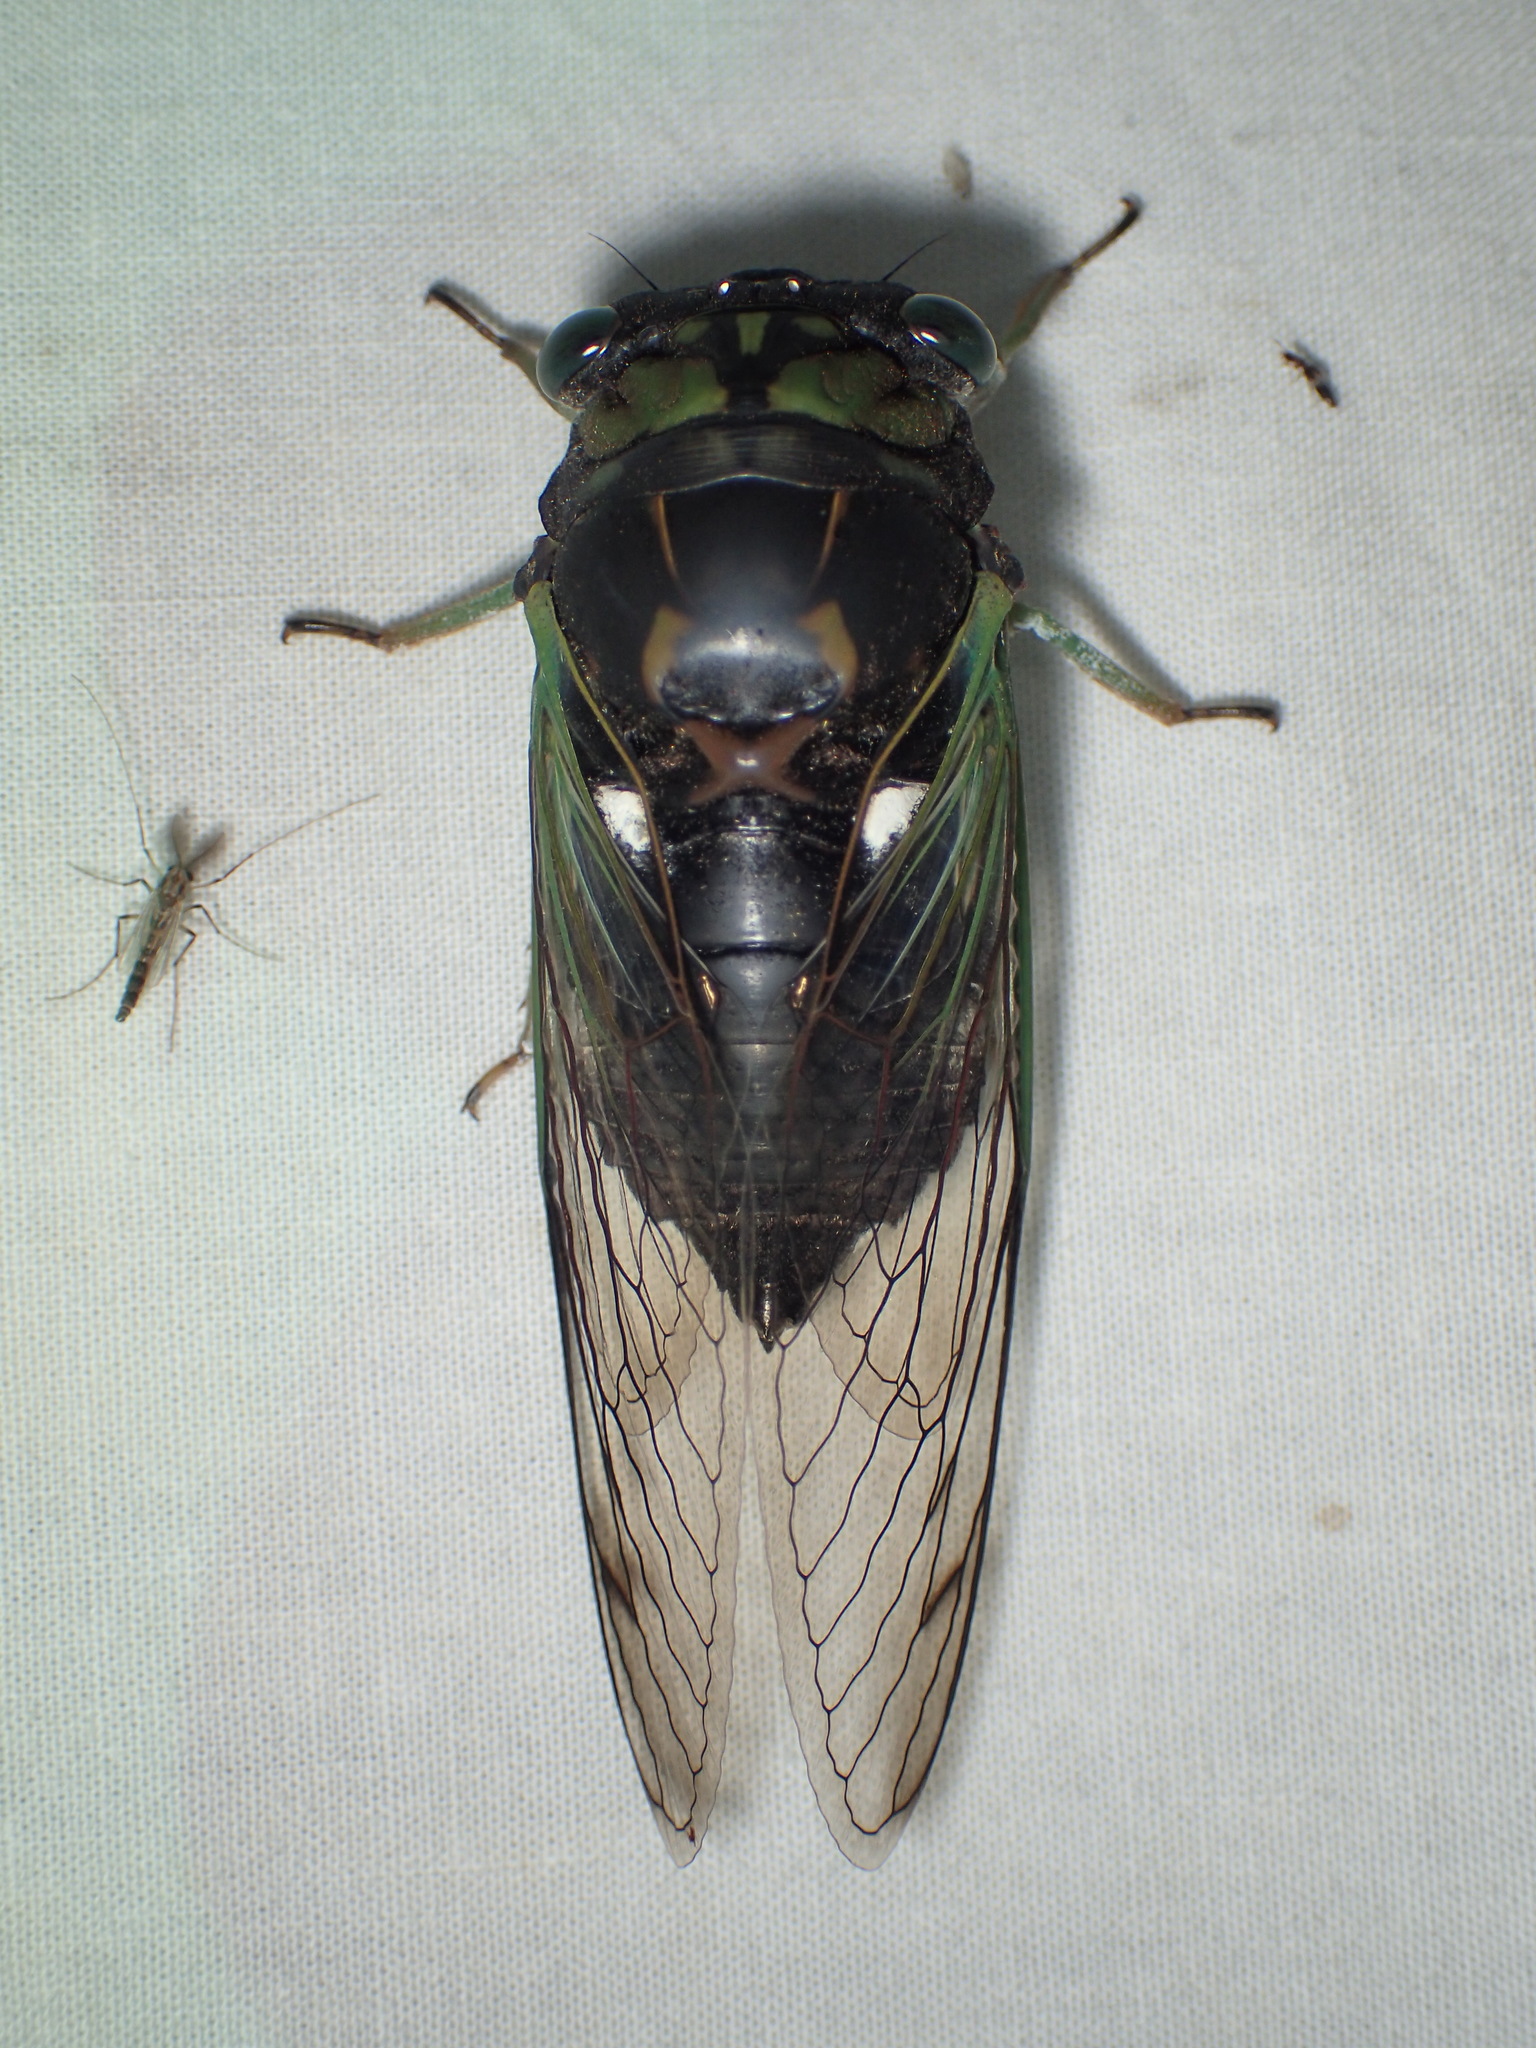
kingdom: Animalia
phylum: Arthropoda
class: Insecta
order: Hemiptera
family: Cicadidae
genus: Neotibicen
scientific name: Neotibicen tibicen
